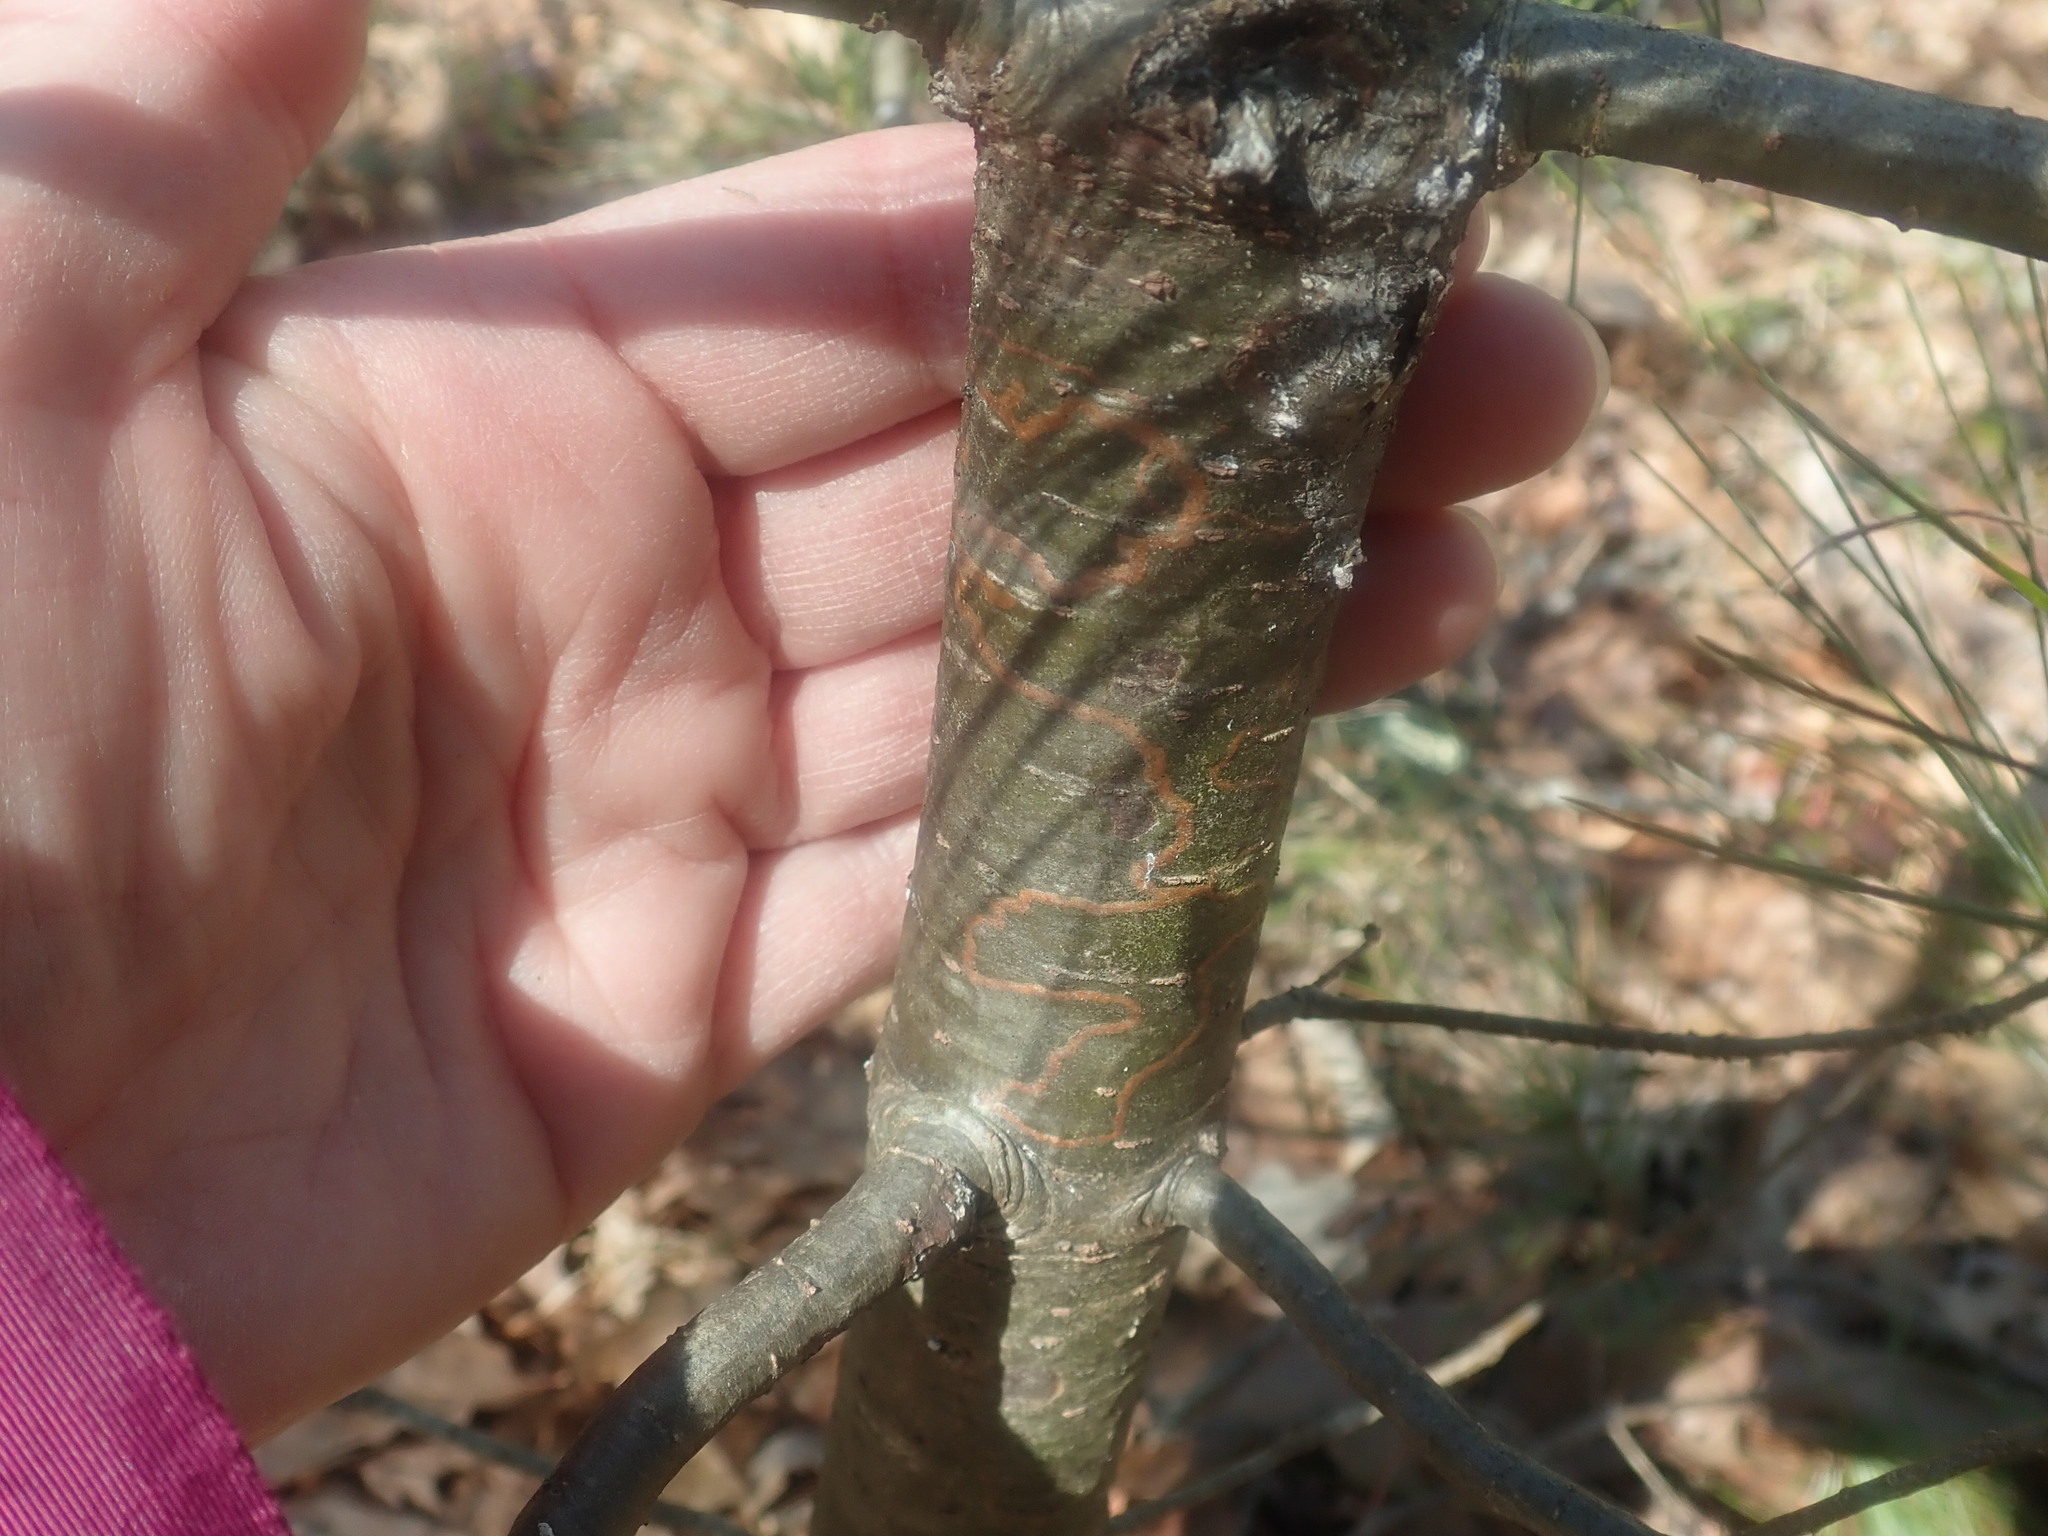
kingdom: Animalia
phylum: Arthropoda
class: Insecta
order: Lepidoptera
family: Gracillariidae
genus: Marmara
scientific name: Marmara fasciella
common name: White pine barkminer moth
